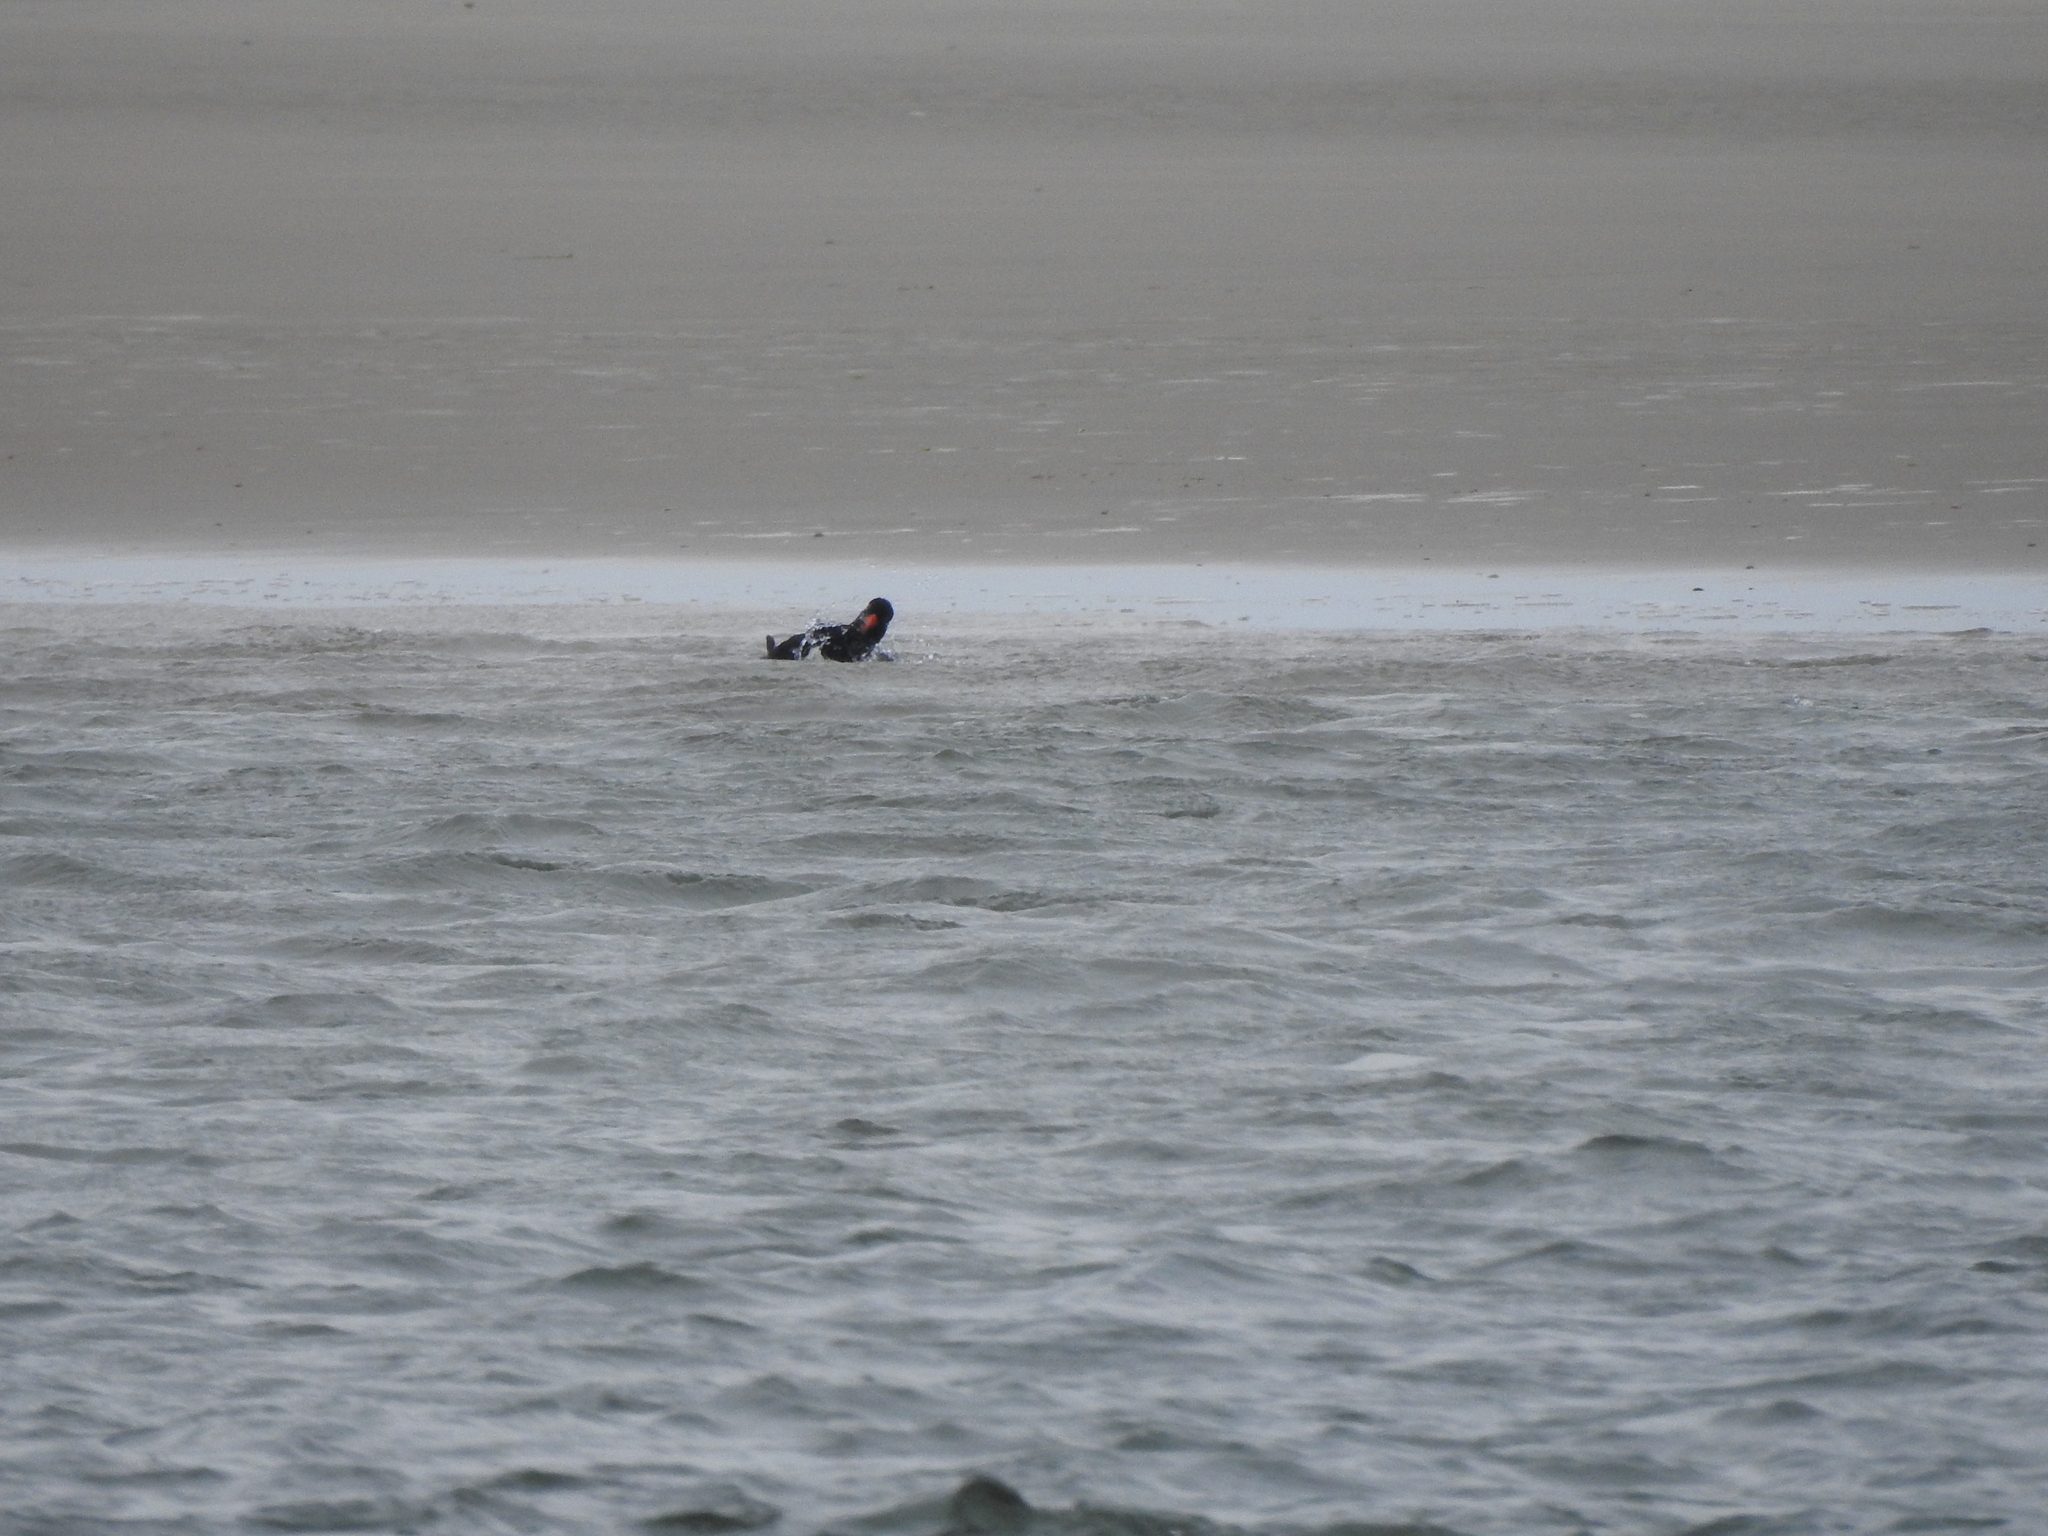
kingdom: Animalia
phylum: Chordata
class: Aves
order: Charadriiformes
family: Haematopodidae
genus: Haematopus
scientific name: Haematopus ostralegus
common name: Eurasian oystercatcher
